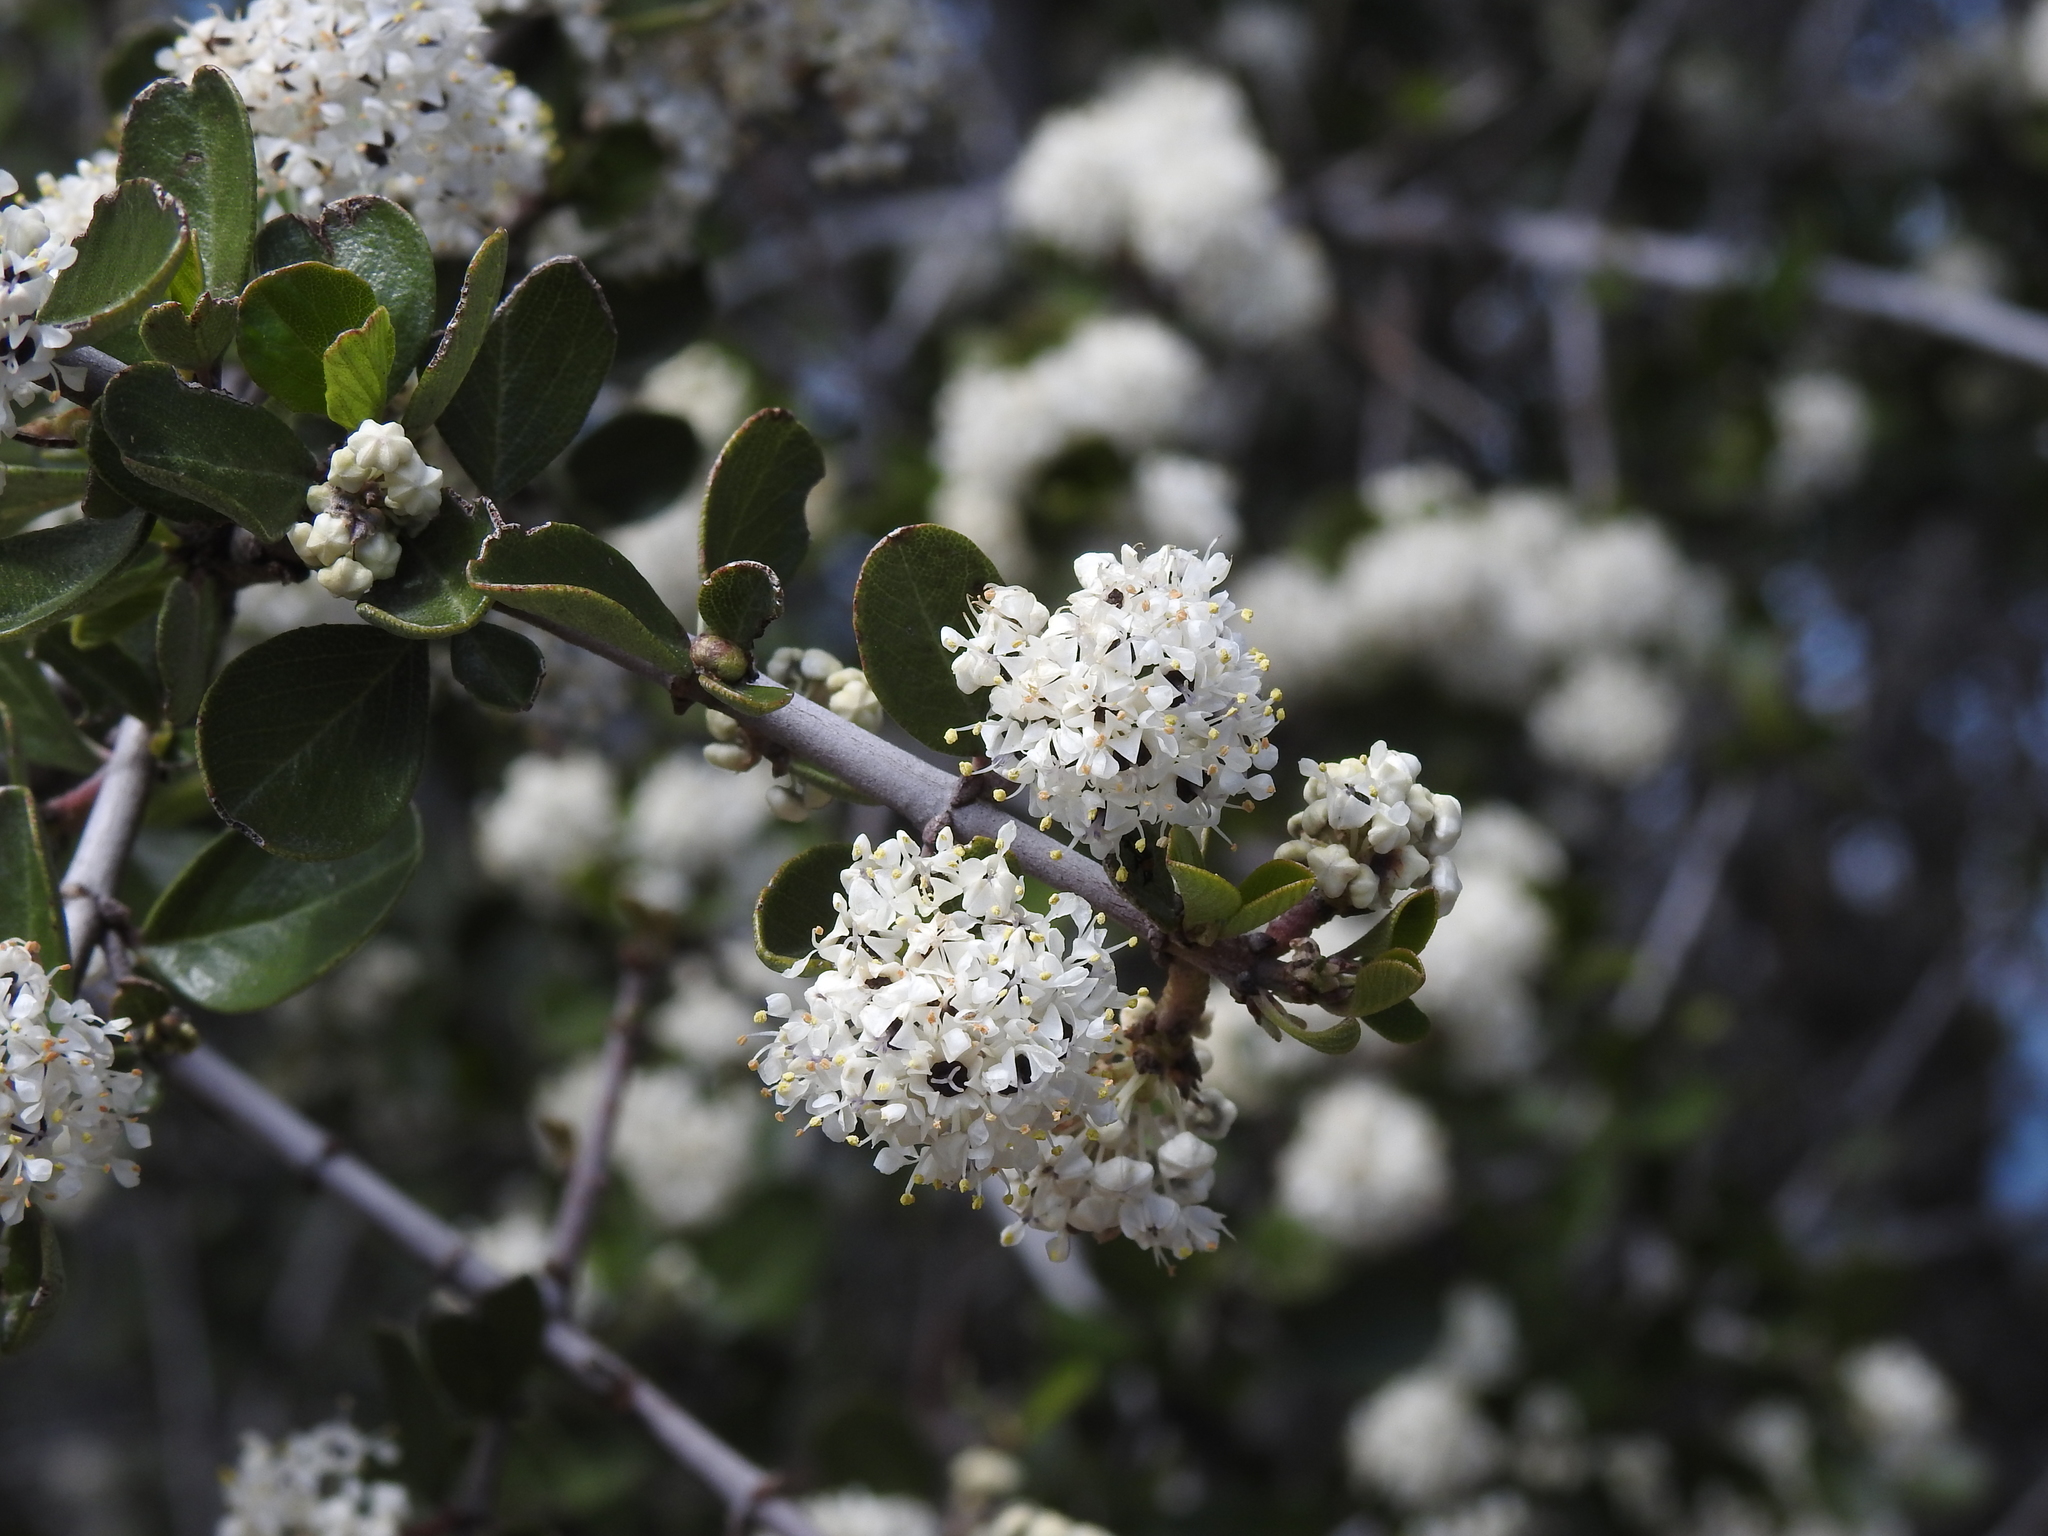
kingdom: Plantae
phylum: Tracheophyta
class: Magnoliopsida
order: Rosales
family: Rhamnaceae
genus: Ceanothus
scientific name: Ceanothus cuneatus
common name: Cuneate ceanothus
